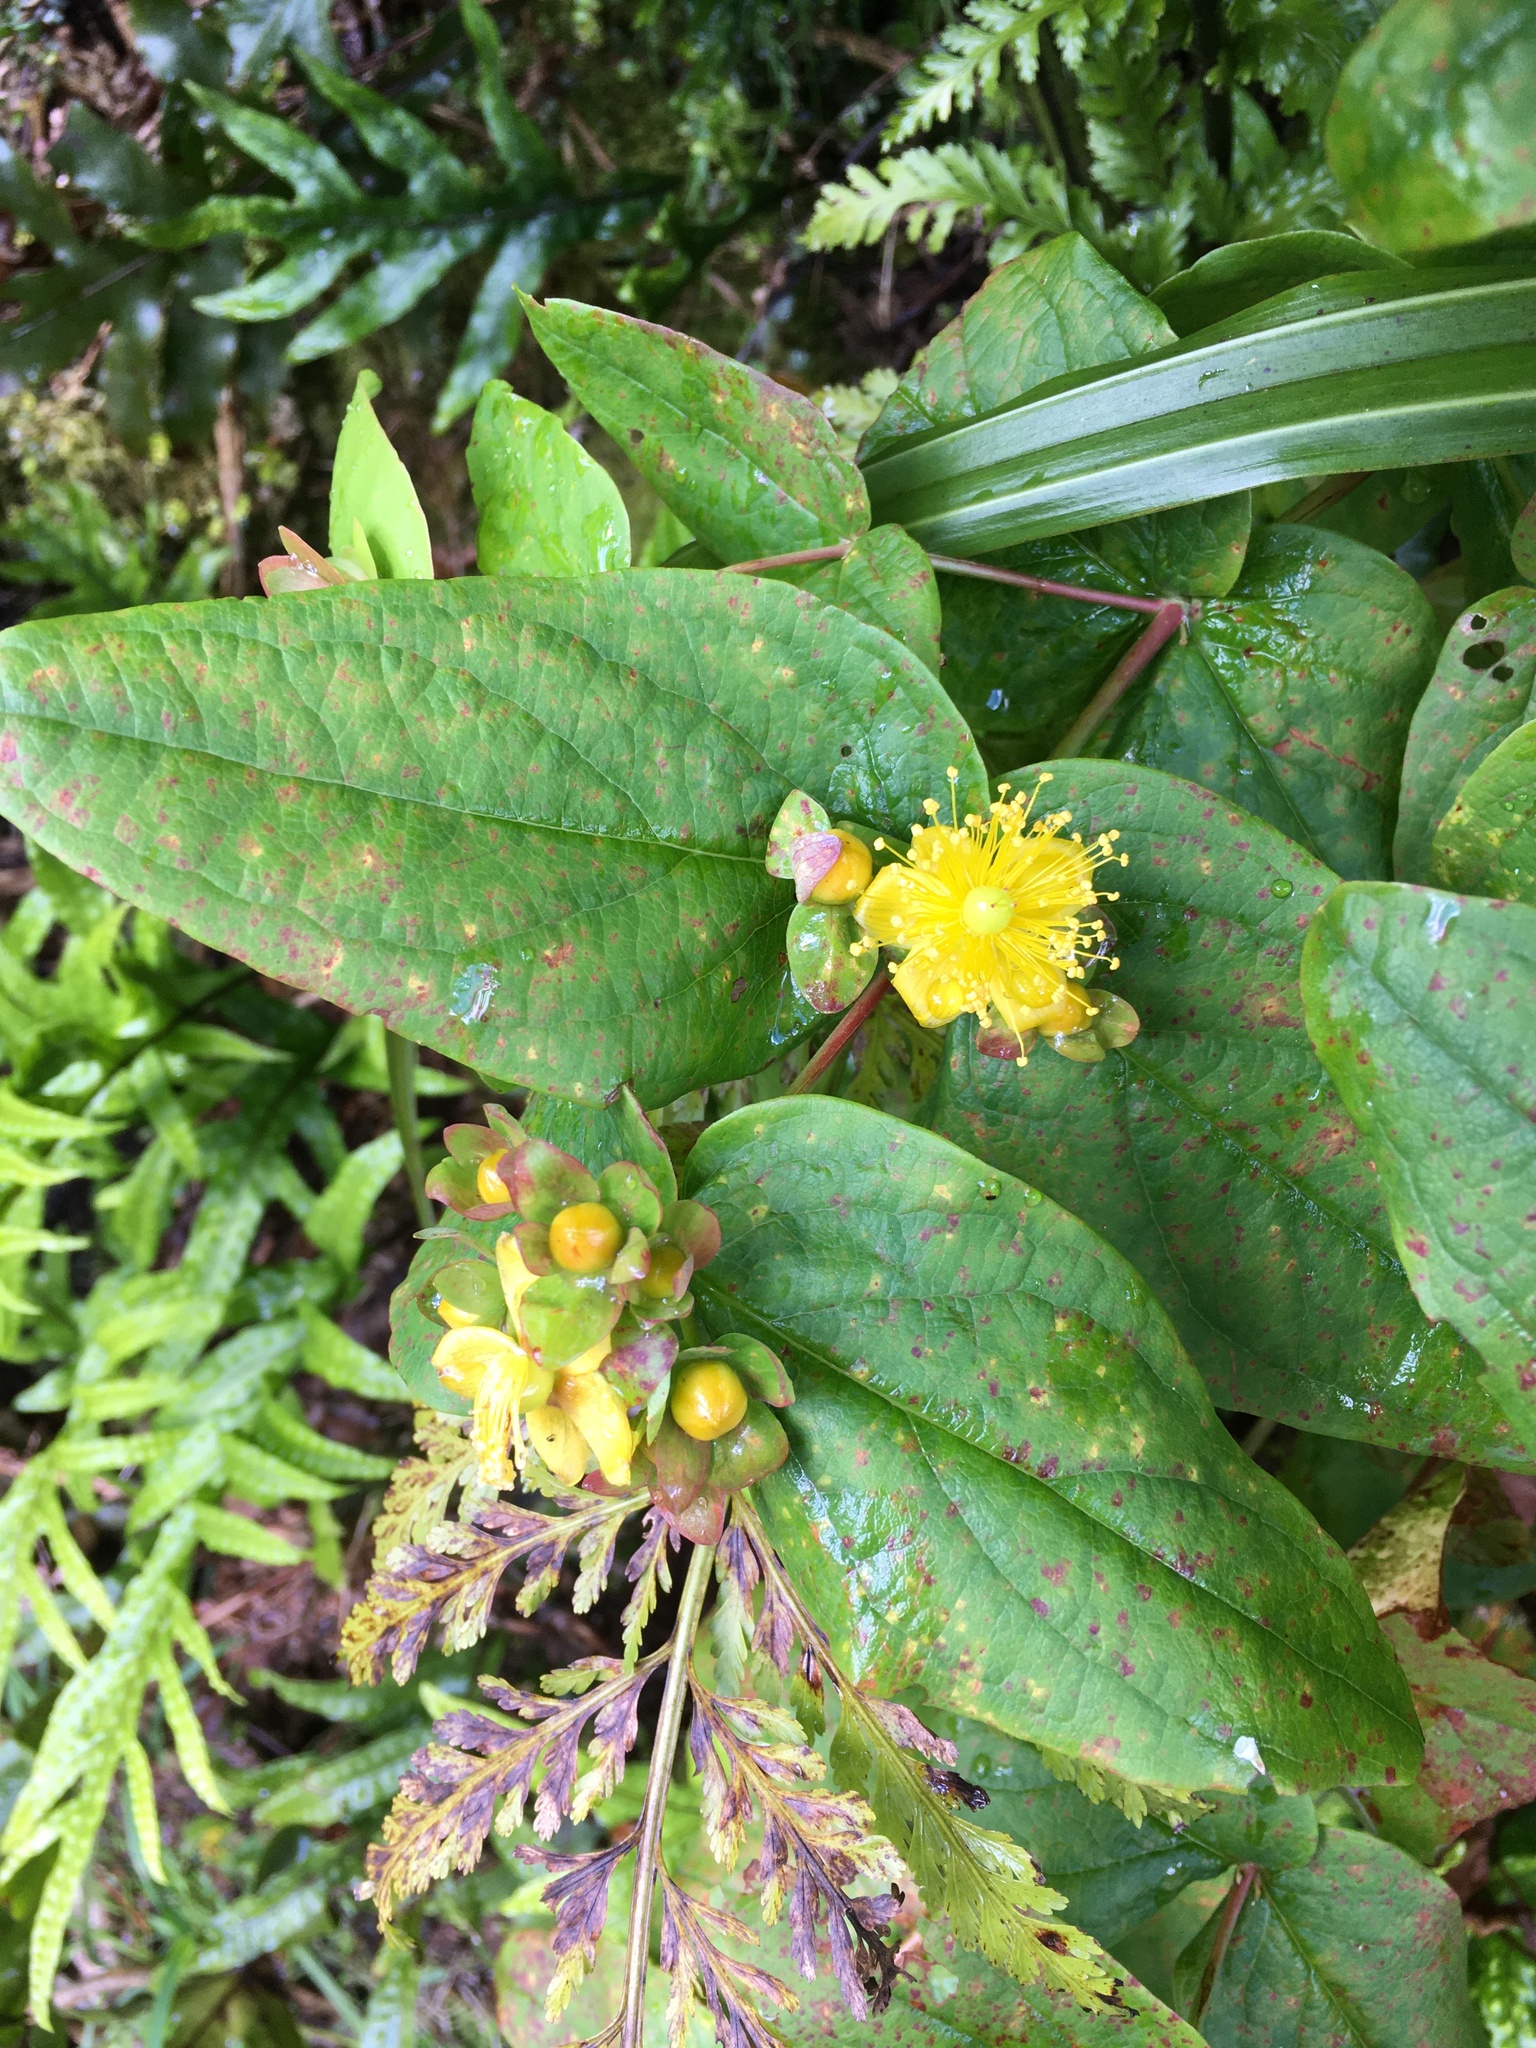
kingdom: Plantae
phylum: Tracheophyta
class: Magnoliopsida
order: Malpighiales
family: Hypericaceae
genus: Hypericum
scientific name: Hypericum androsaemum
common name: Sweet-amber
